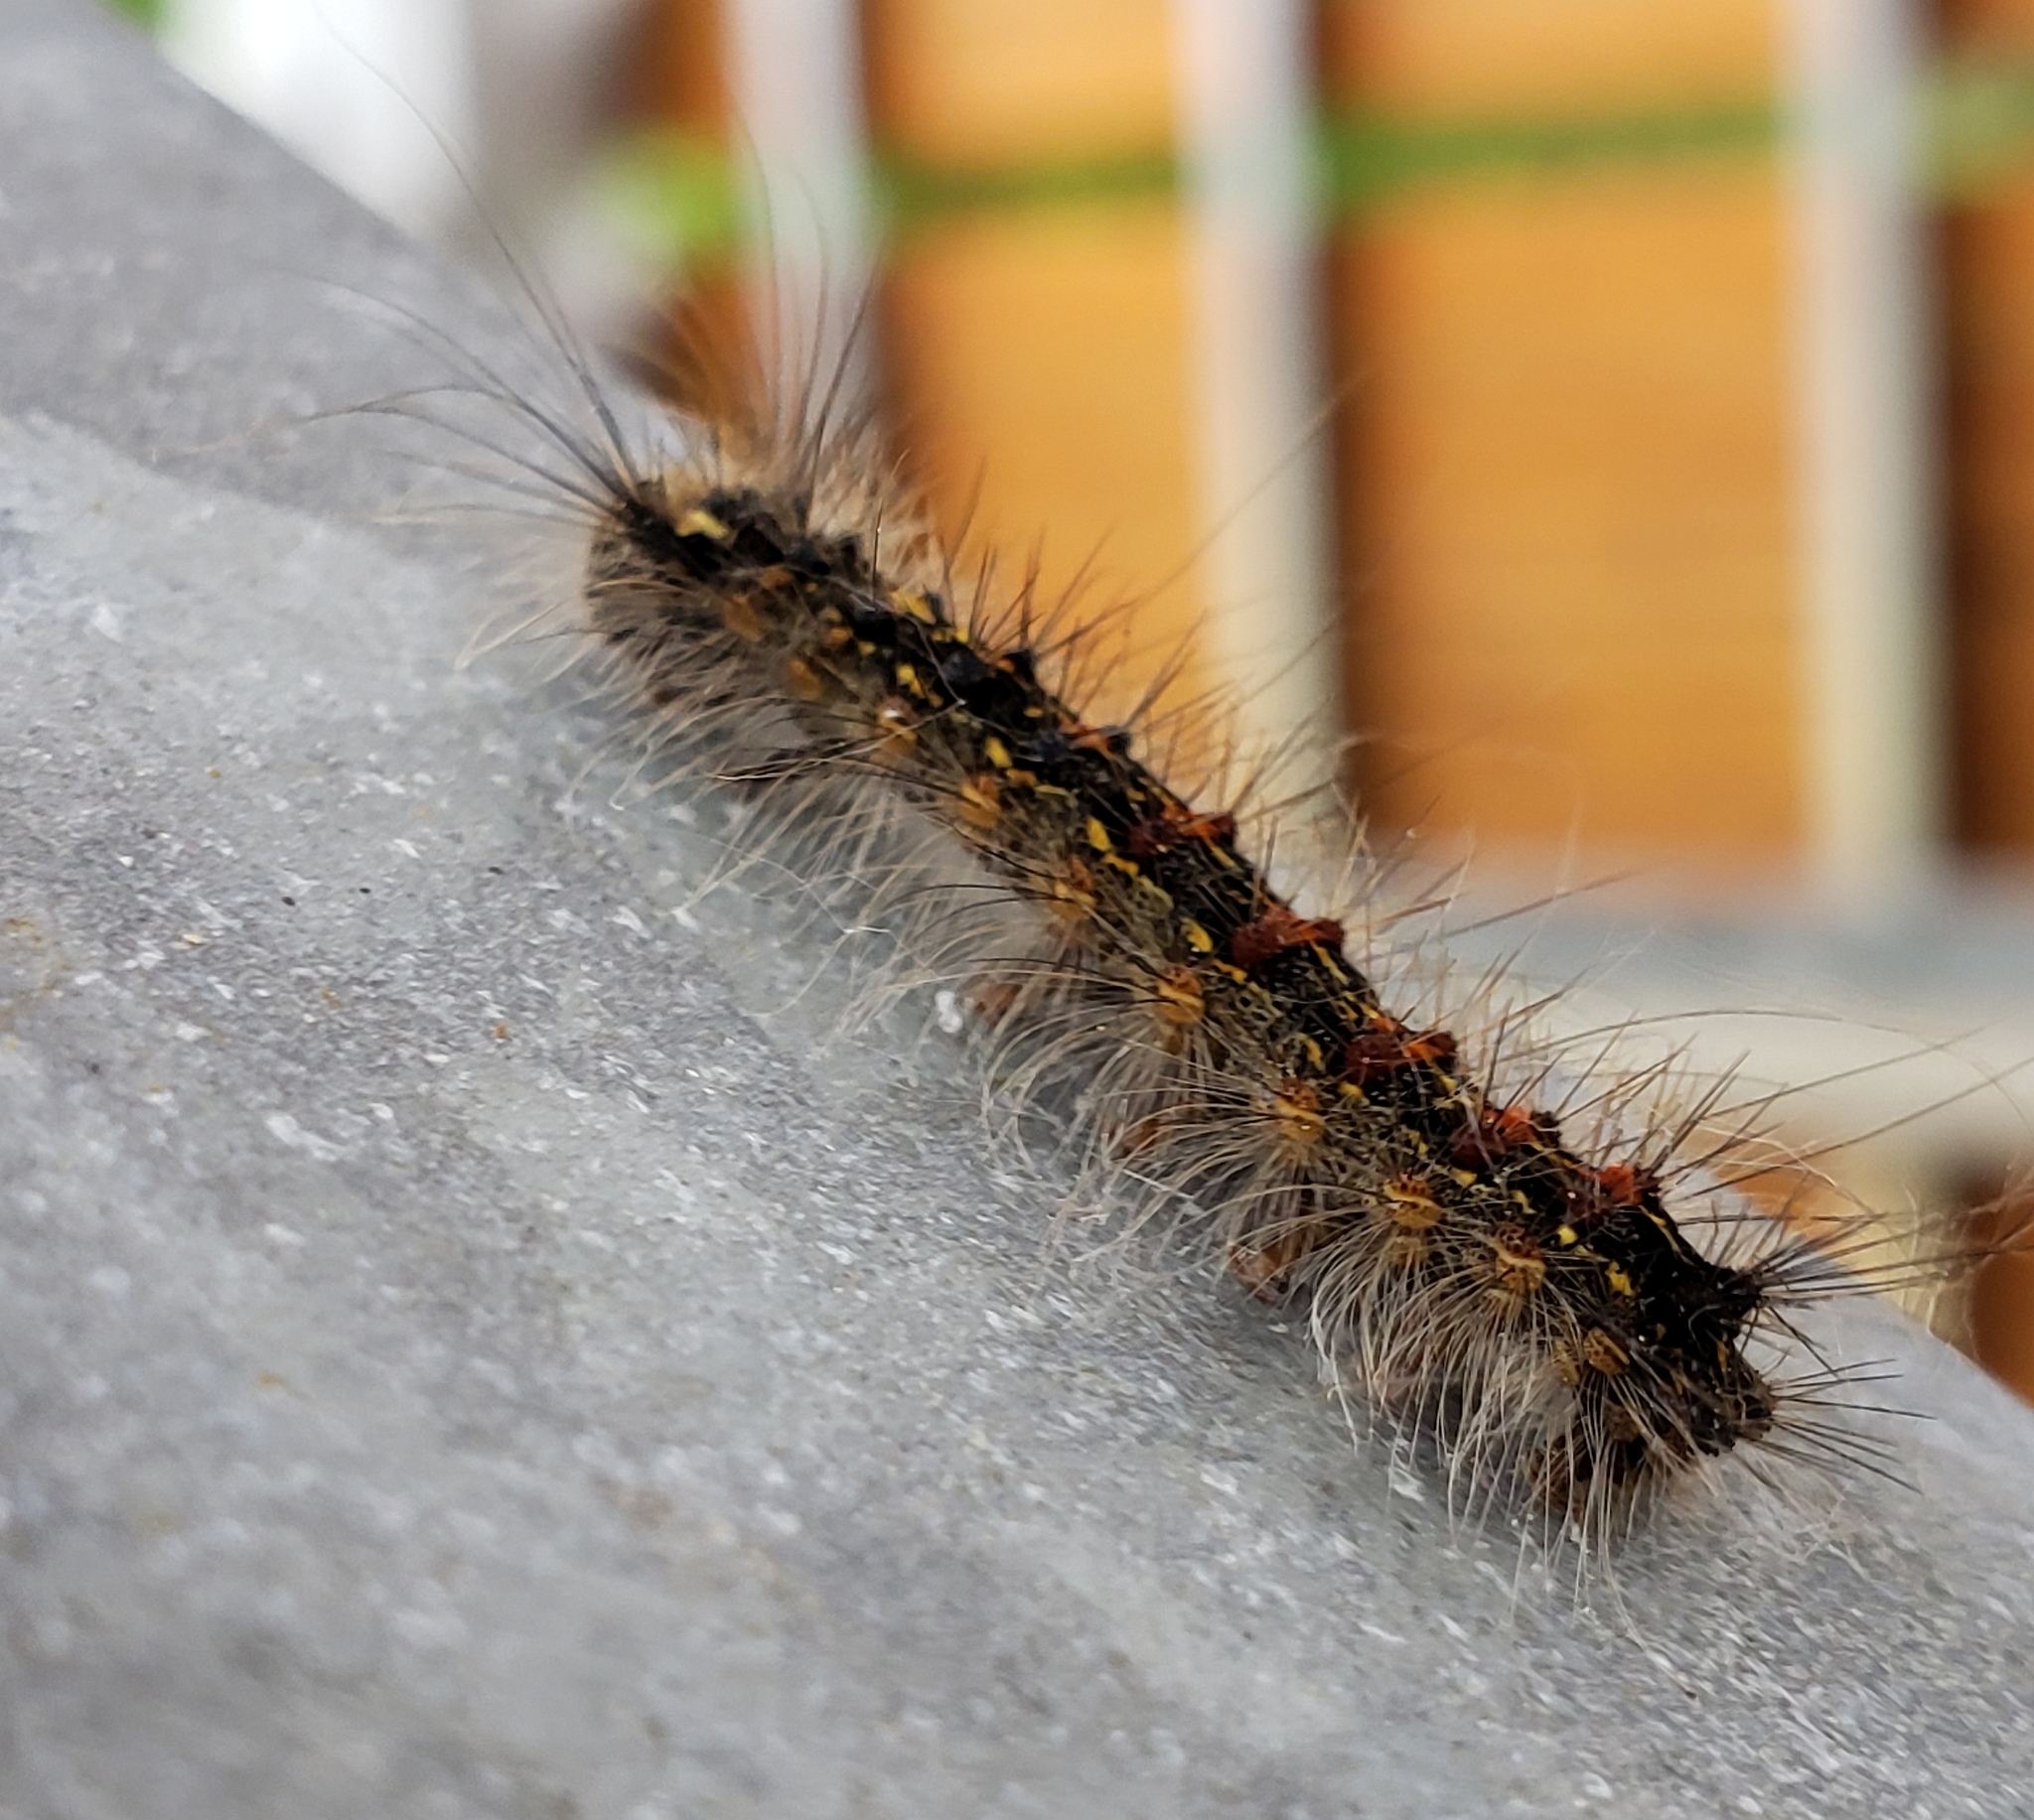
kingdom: Animalia
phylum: Arthropoda
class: Insecta
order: Lepidoptera
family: Erebidae
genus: Lymantria
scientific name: Lymantria dispar
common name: Gypsy moth
